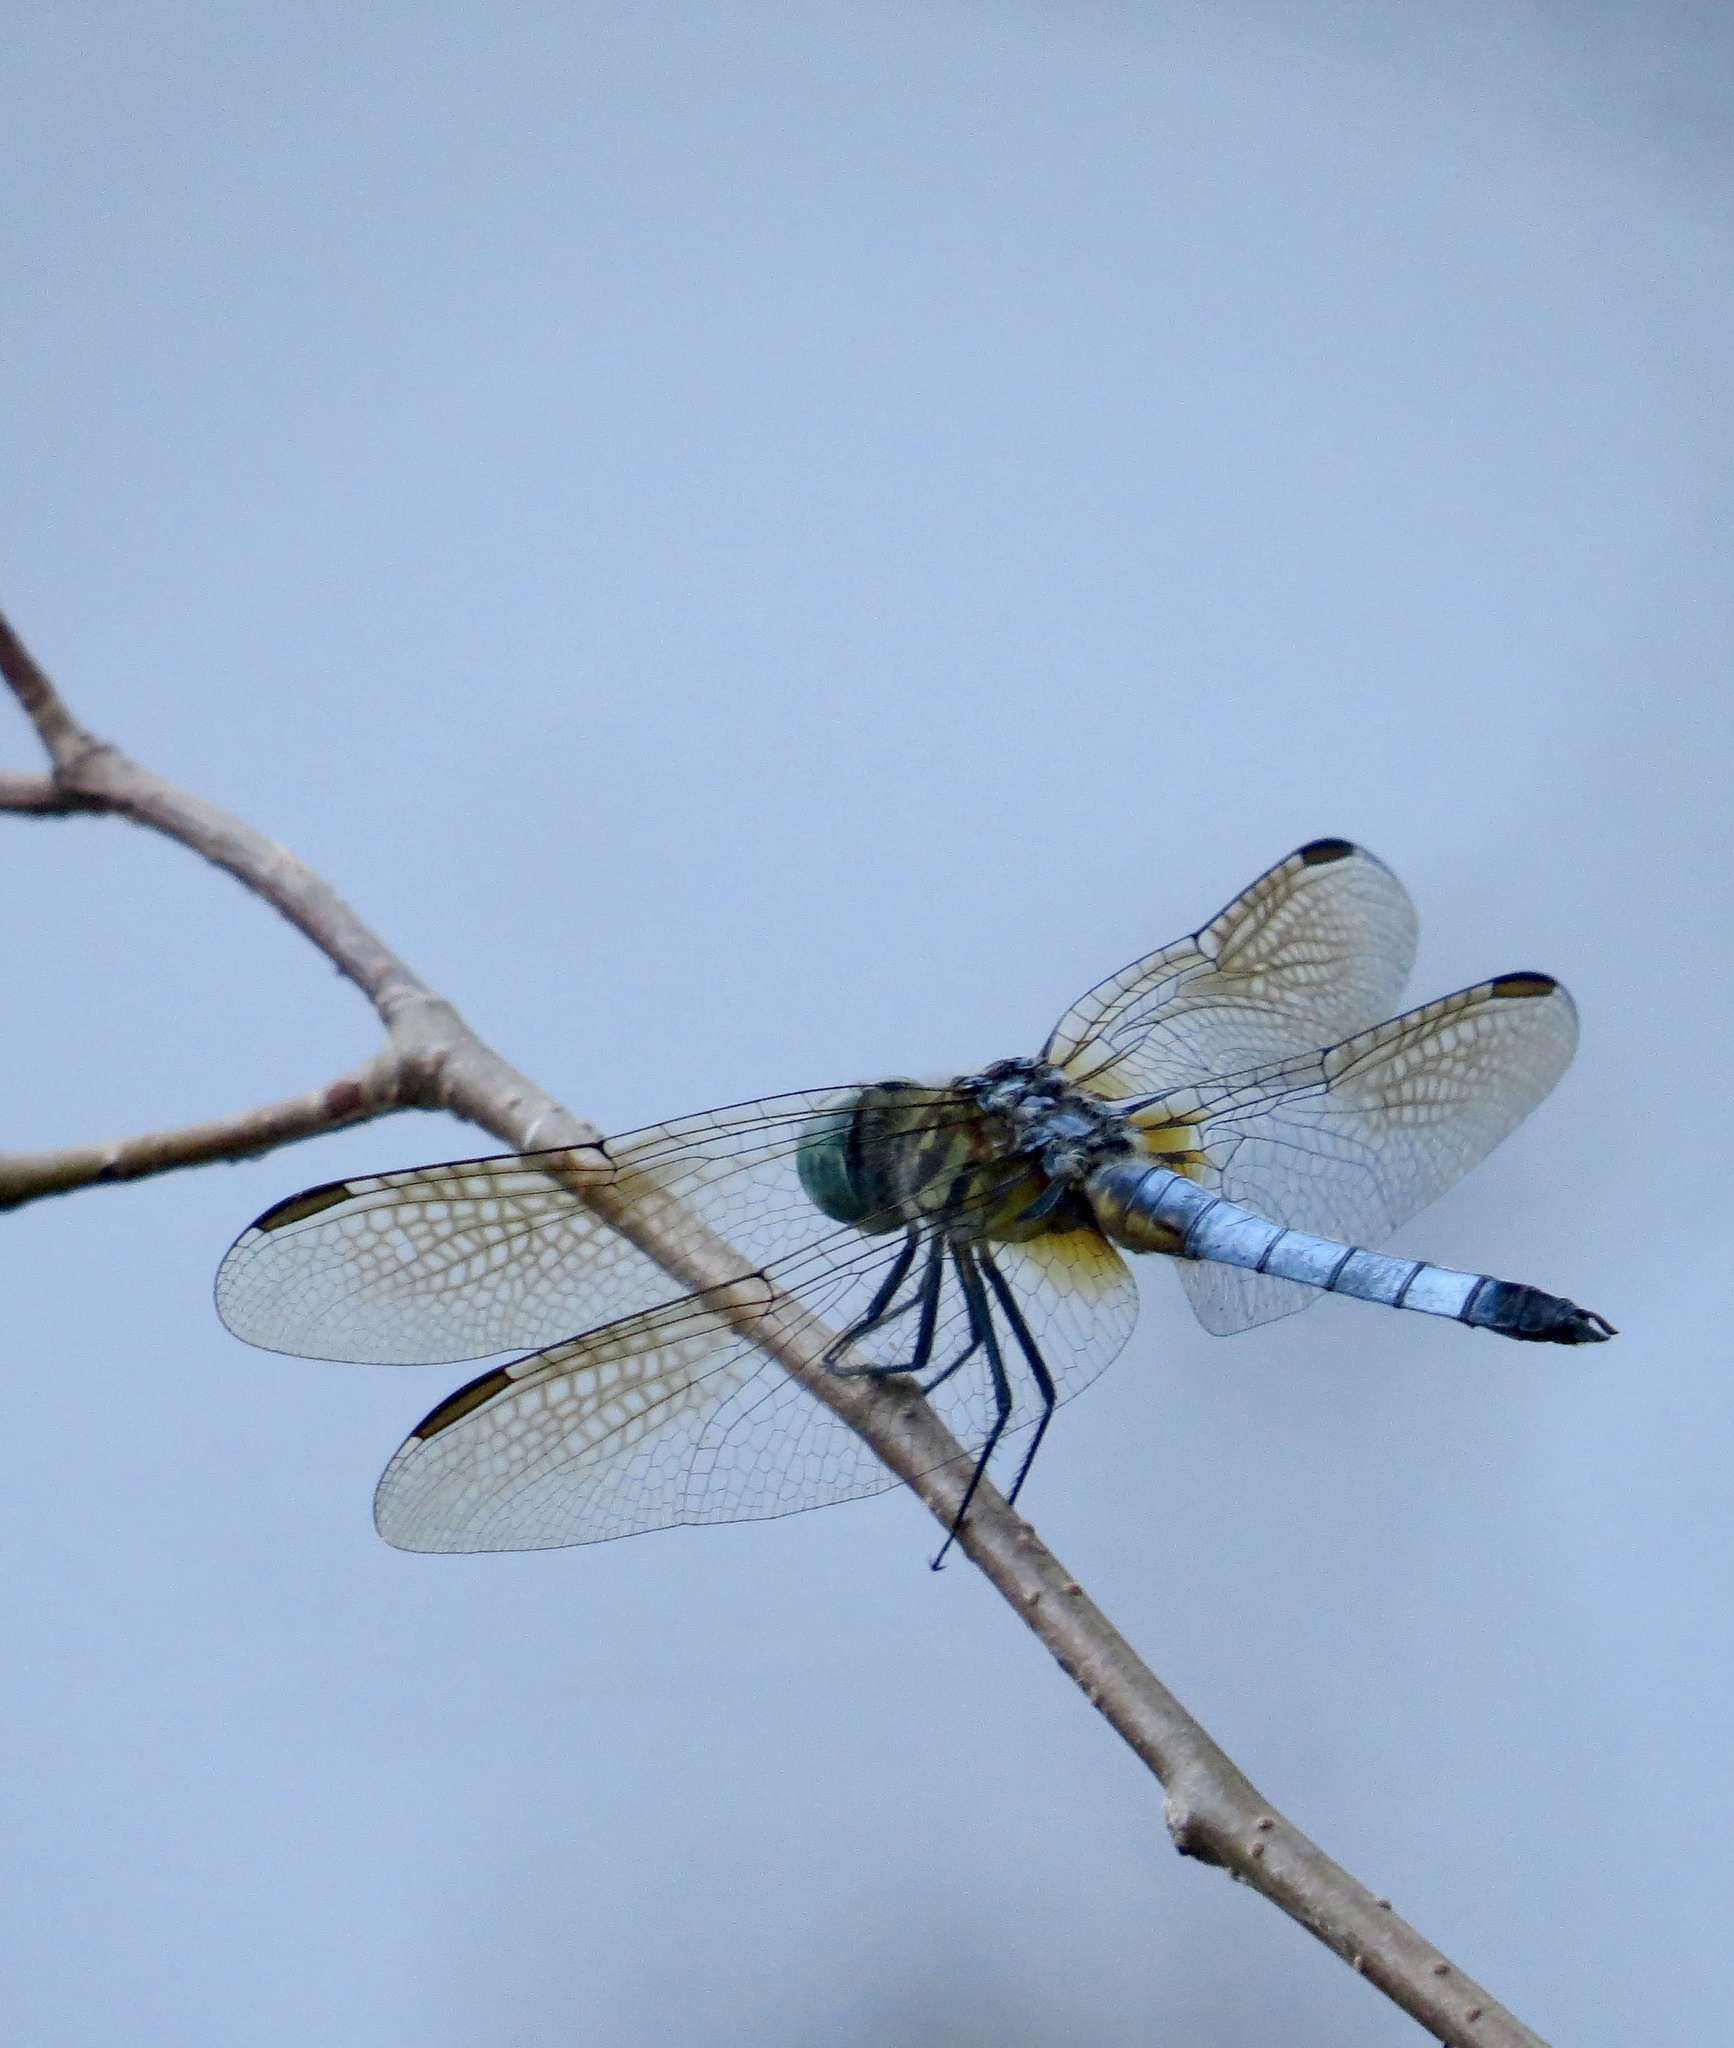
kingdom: Animalia
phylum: Arthropoda
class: Insecta
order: Odonata
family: Libellulidae
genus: Pachydiplax
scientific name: Pachydiplax longipennis
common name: Blue dasher
